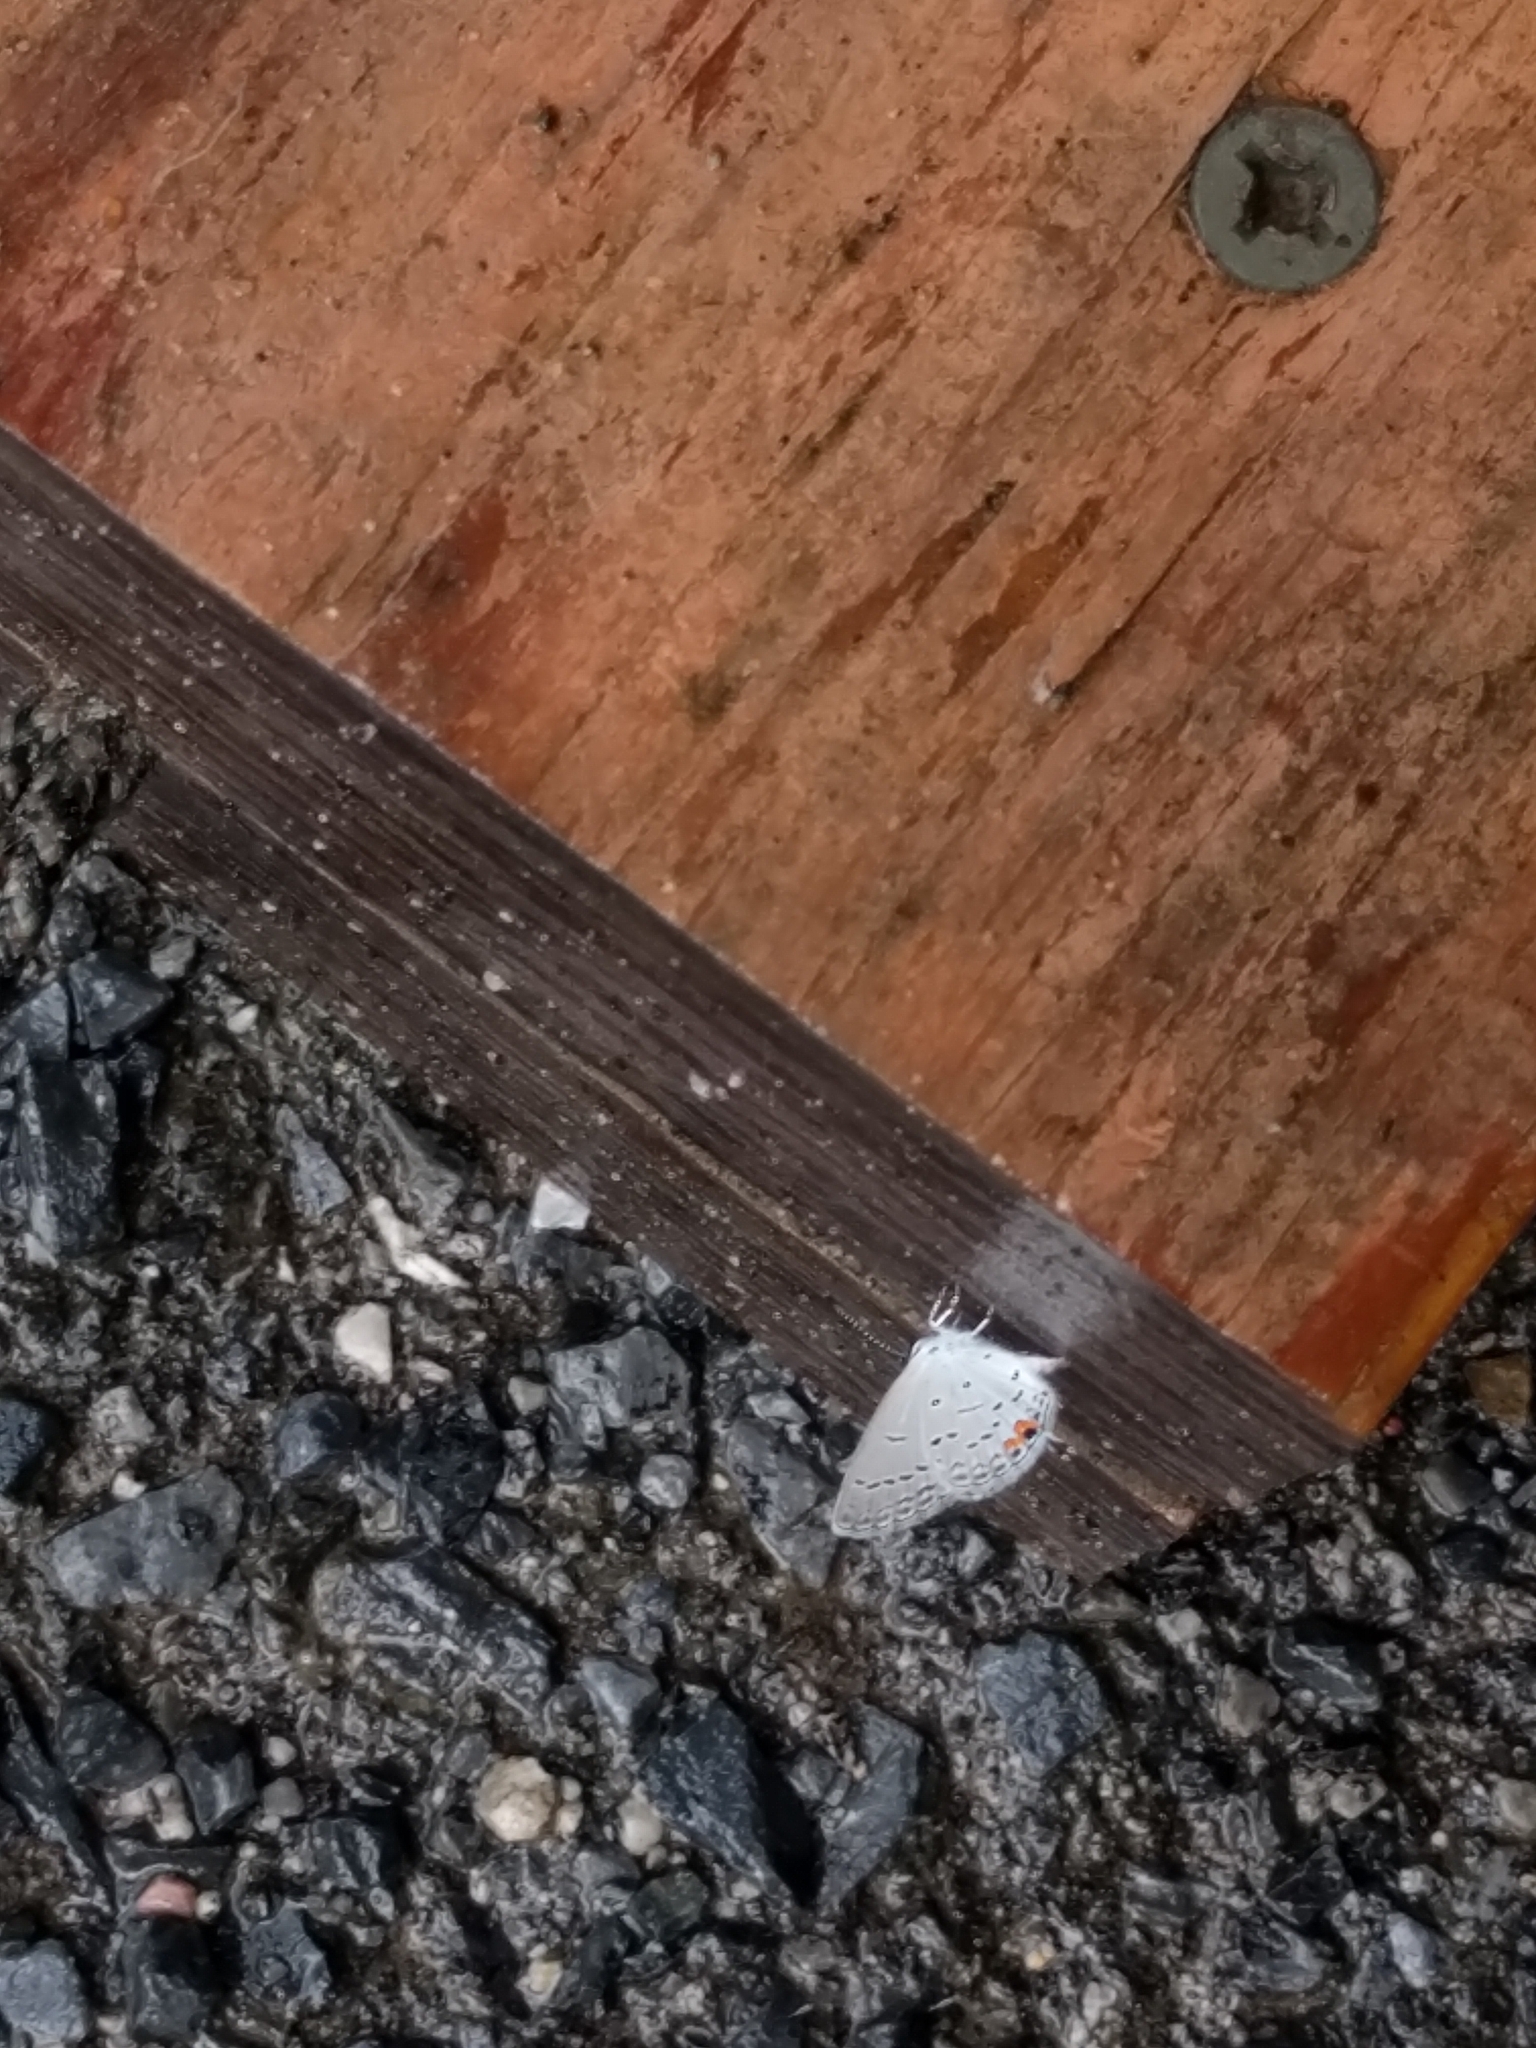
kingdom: Animalia
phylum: Arthropoda
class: Insecta
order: Lepidoptera
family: Lycaenidae
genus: Elkalyce
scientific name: Elkalyce comyntas
